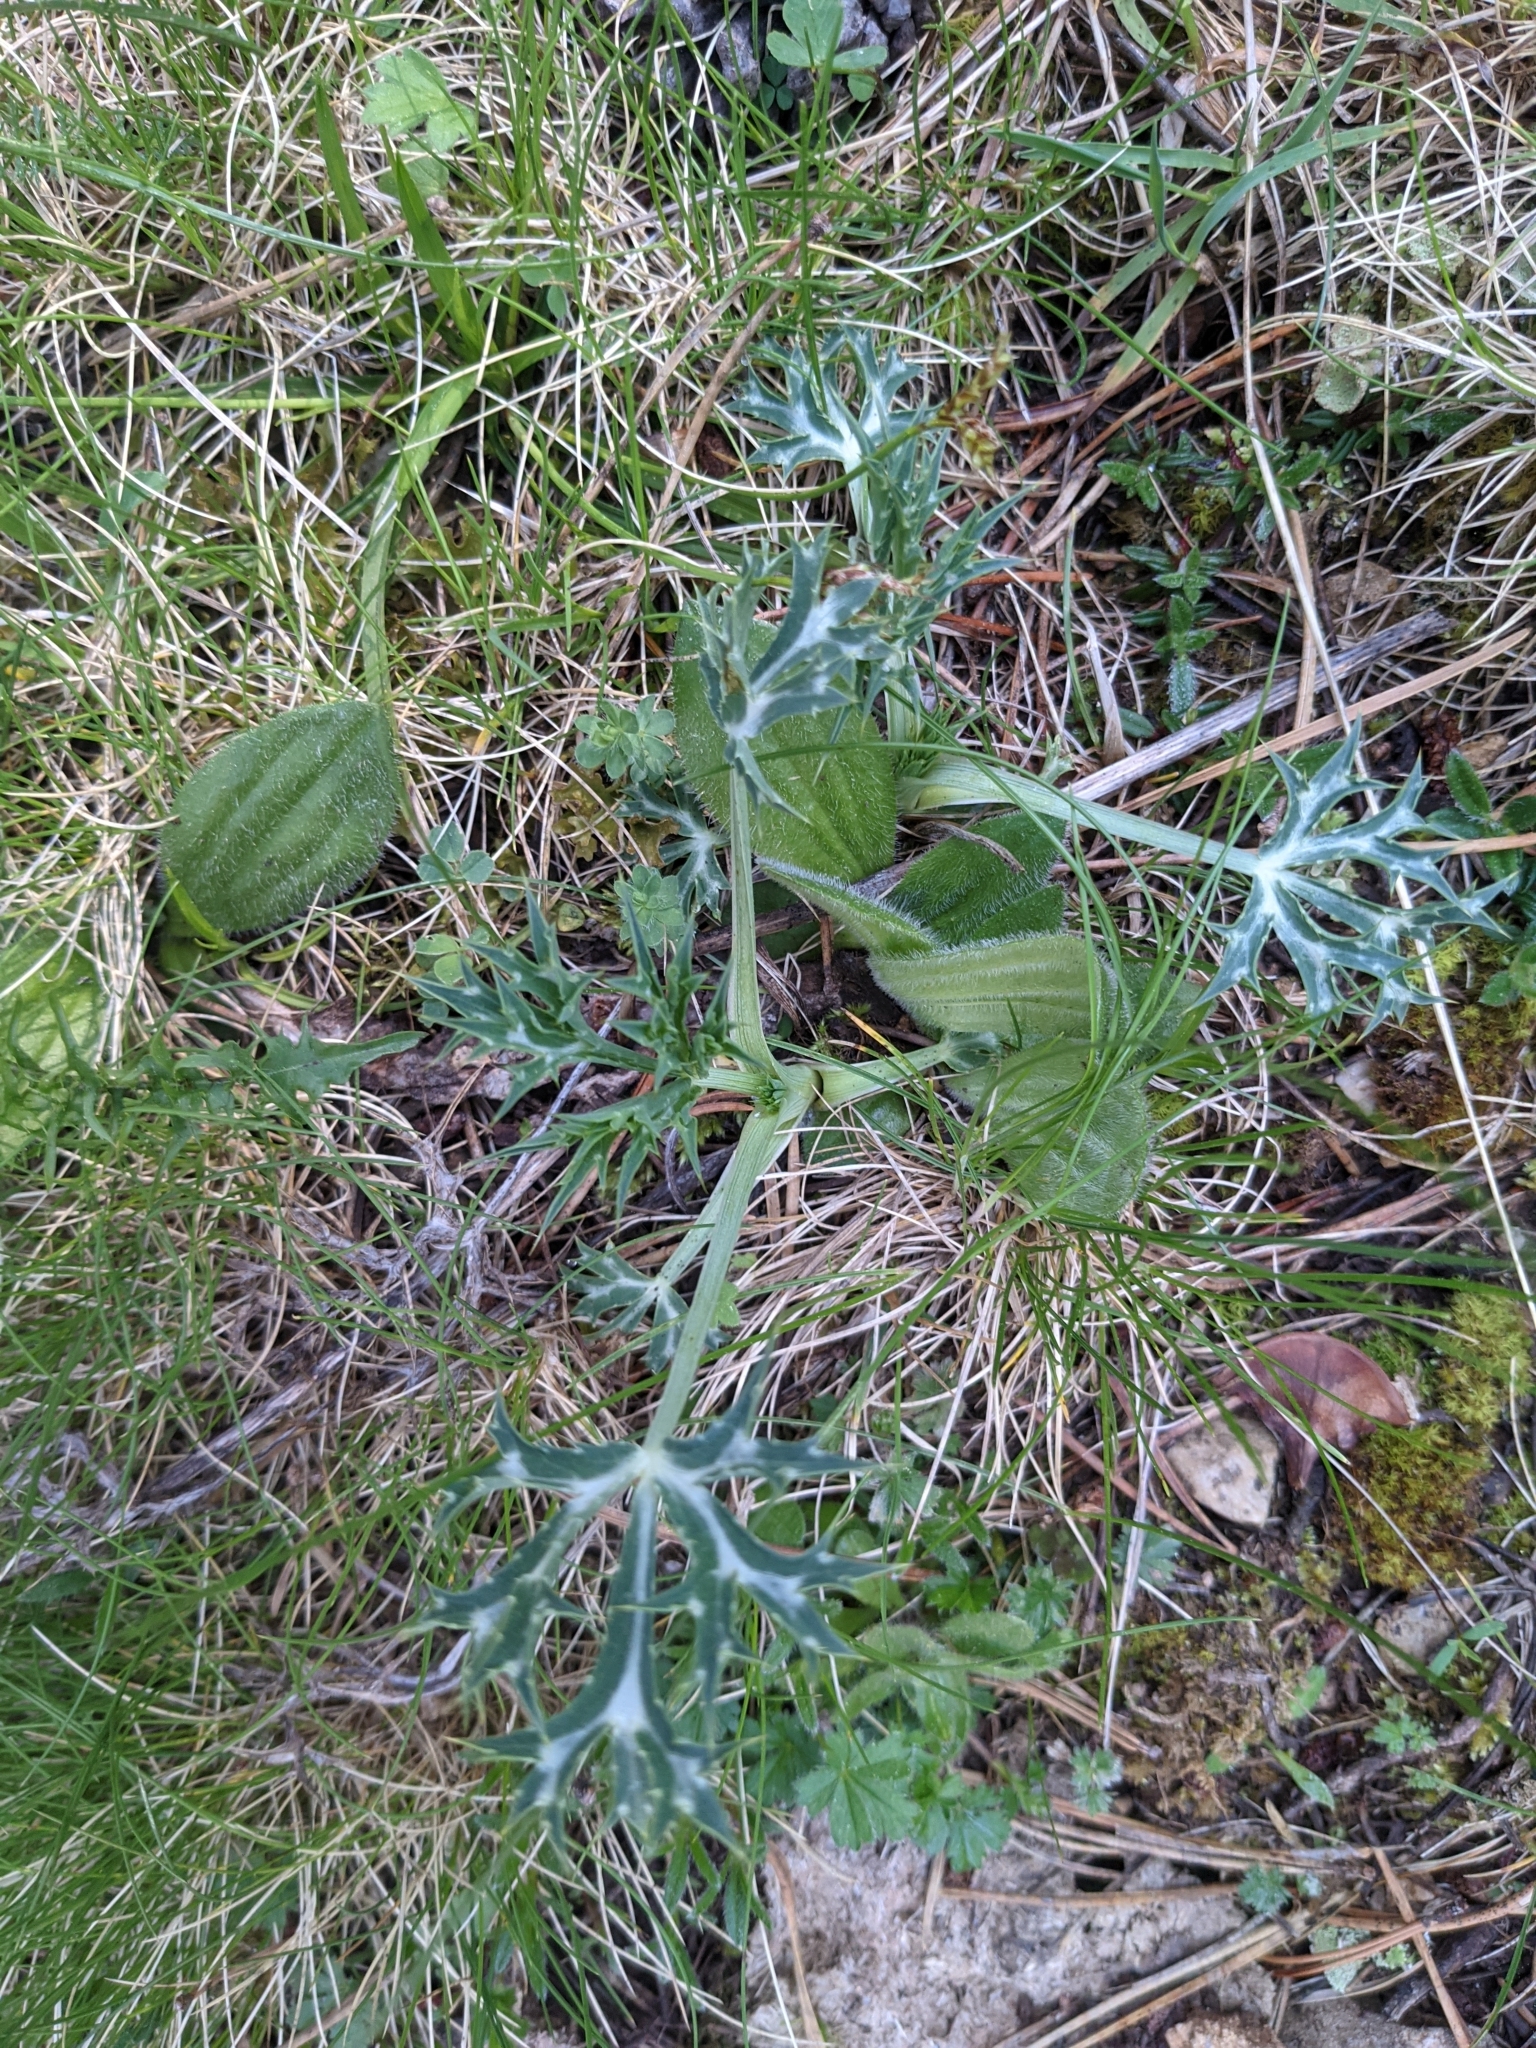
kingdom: Plantae
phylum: Tracheophyta
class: Magnoliopsida
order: Apiales
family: Apiaceae
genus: Eryngium
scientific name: Eryngium bourgatii
